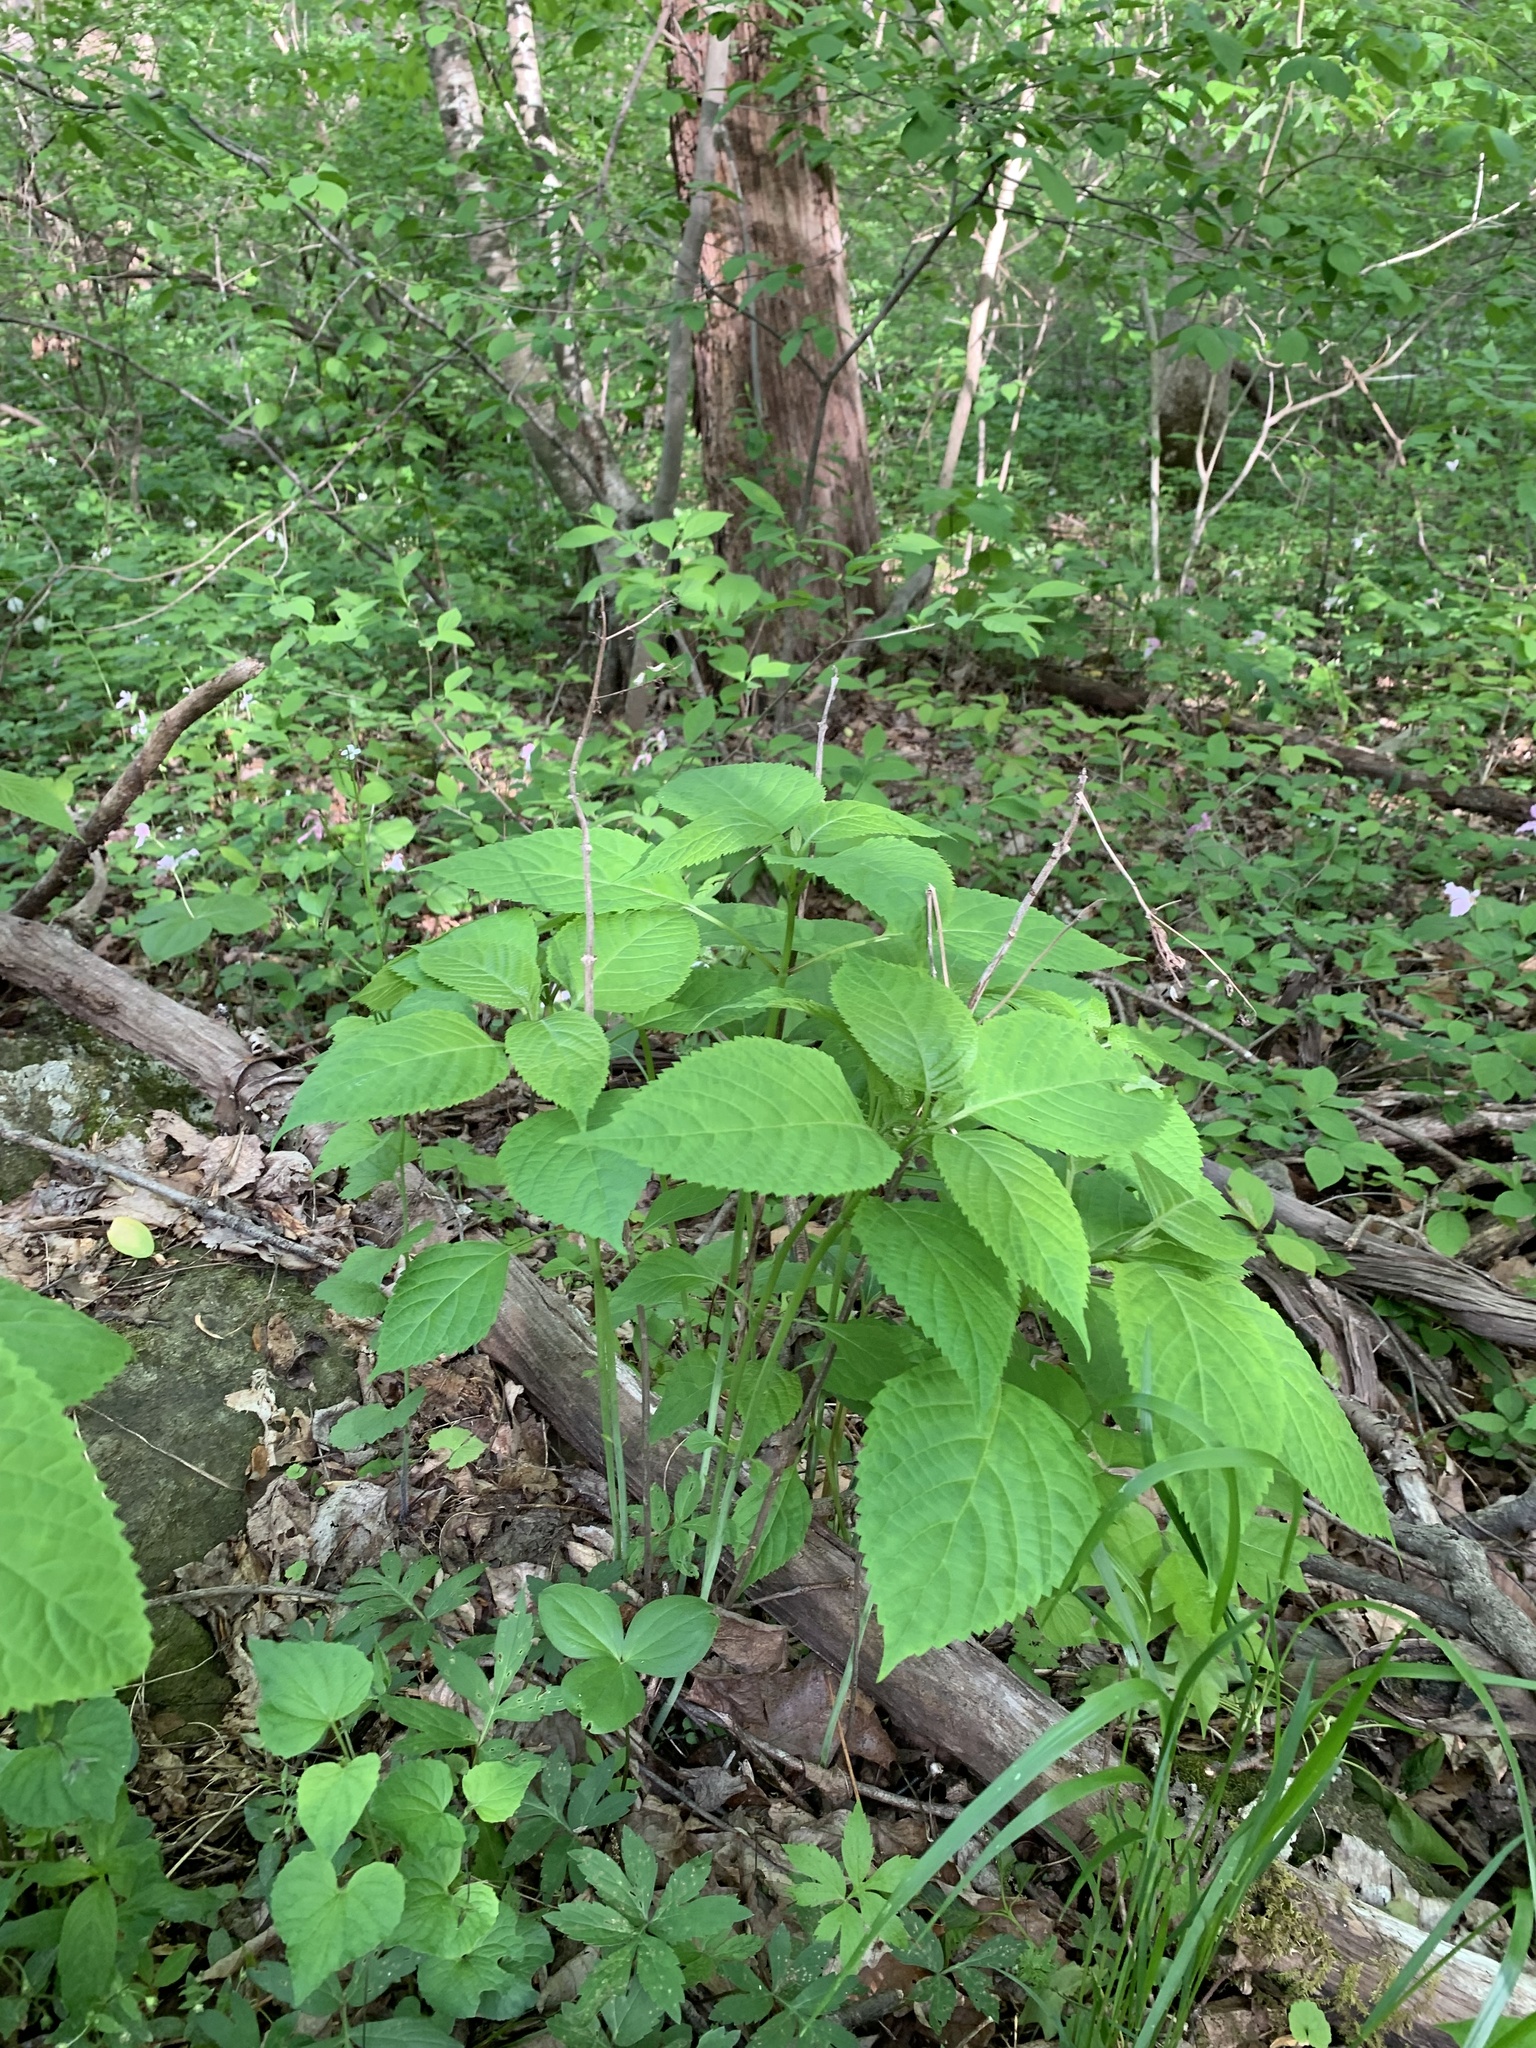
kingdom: Plantae
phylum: Tracheophyta
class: Magnoliopsida
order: Lamiales
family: Lamiaceae
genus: Collinsonia
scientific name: Collinsonia canadensis
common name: Northern horsebalm
